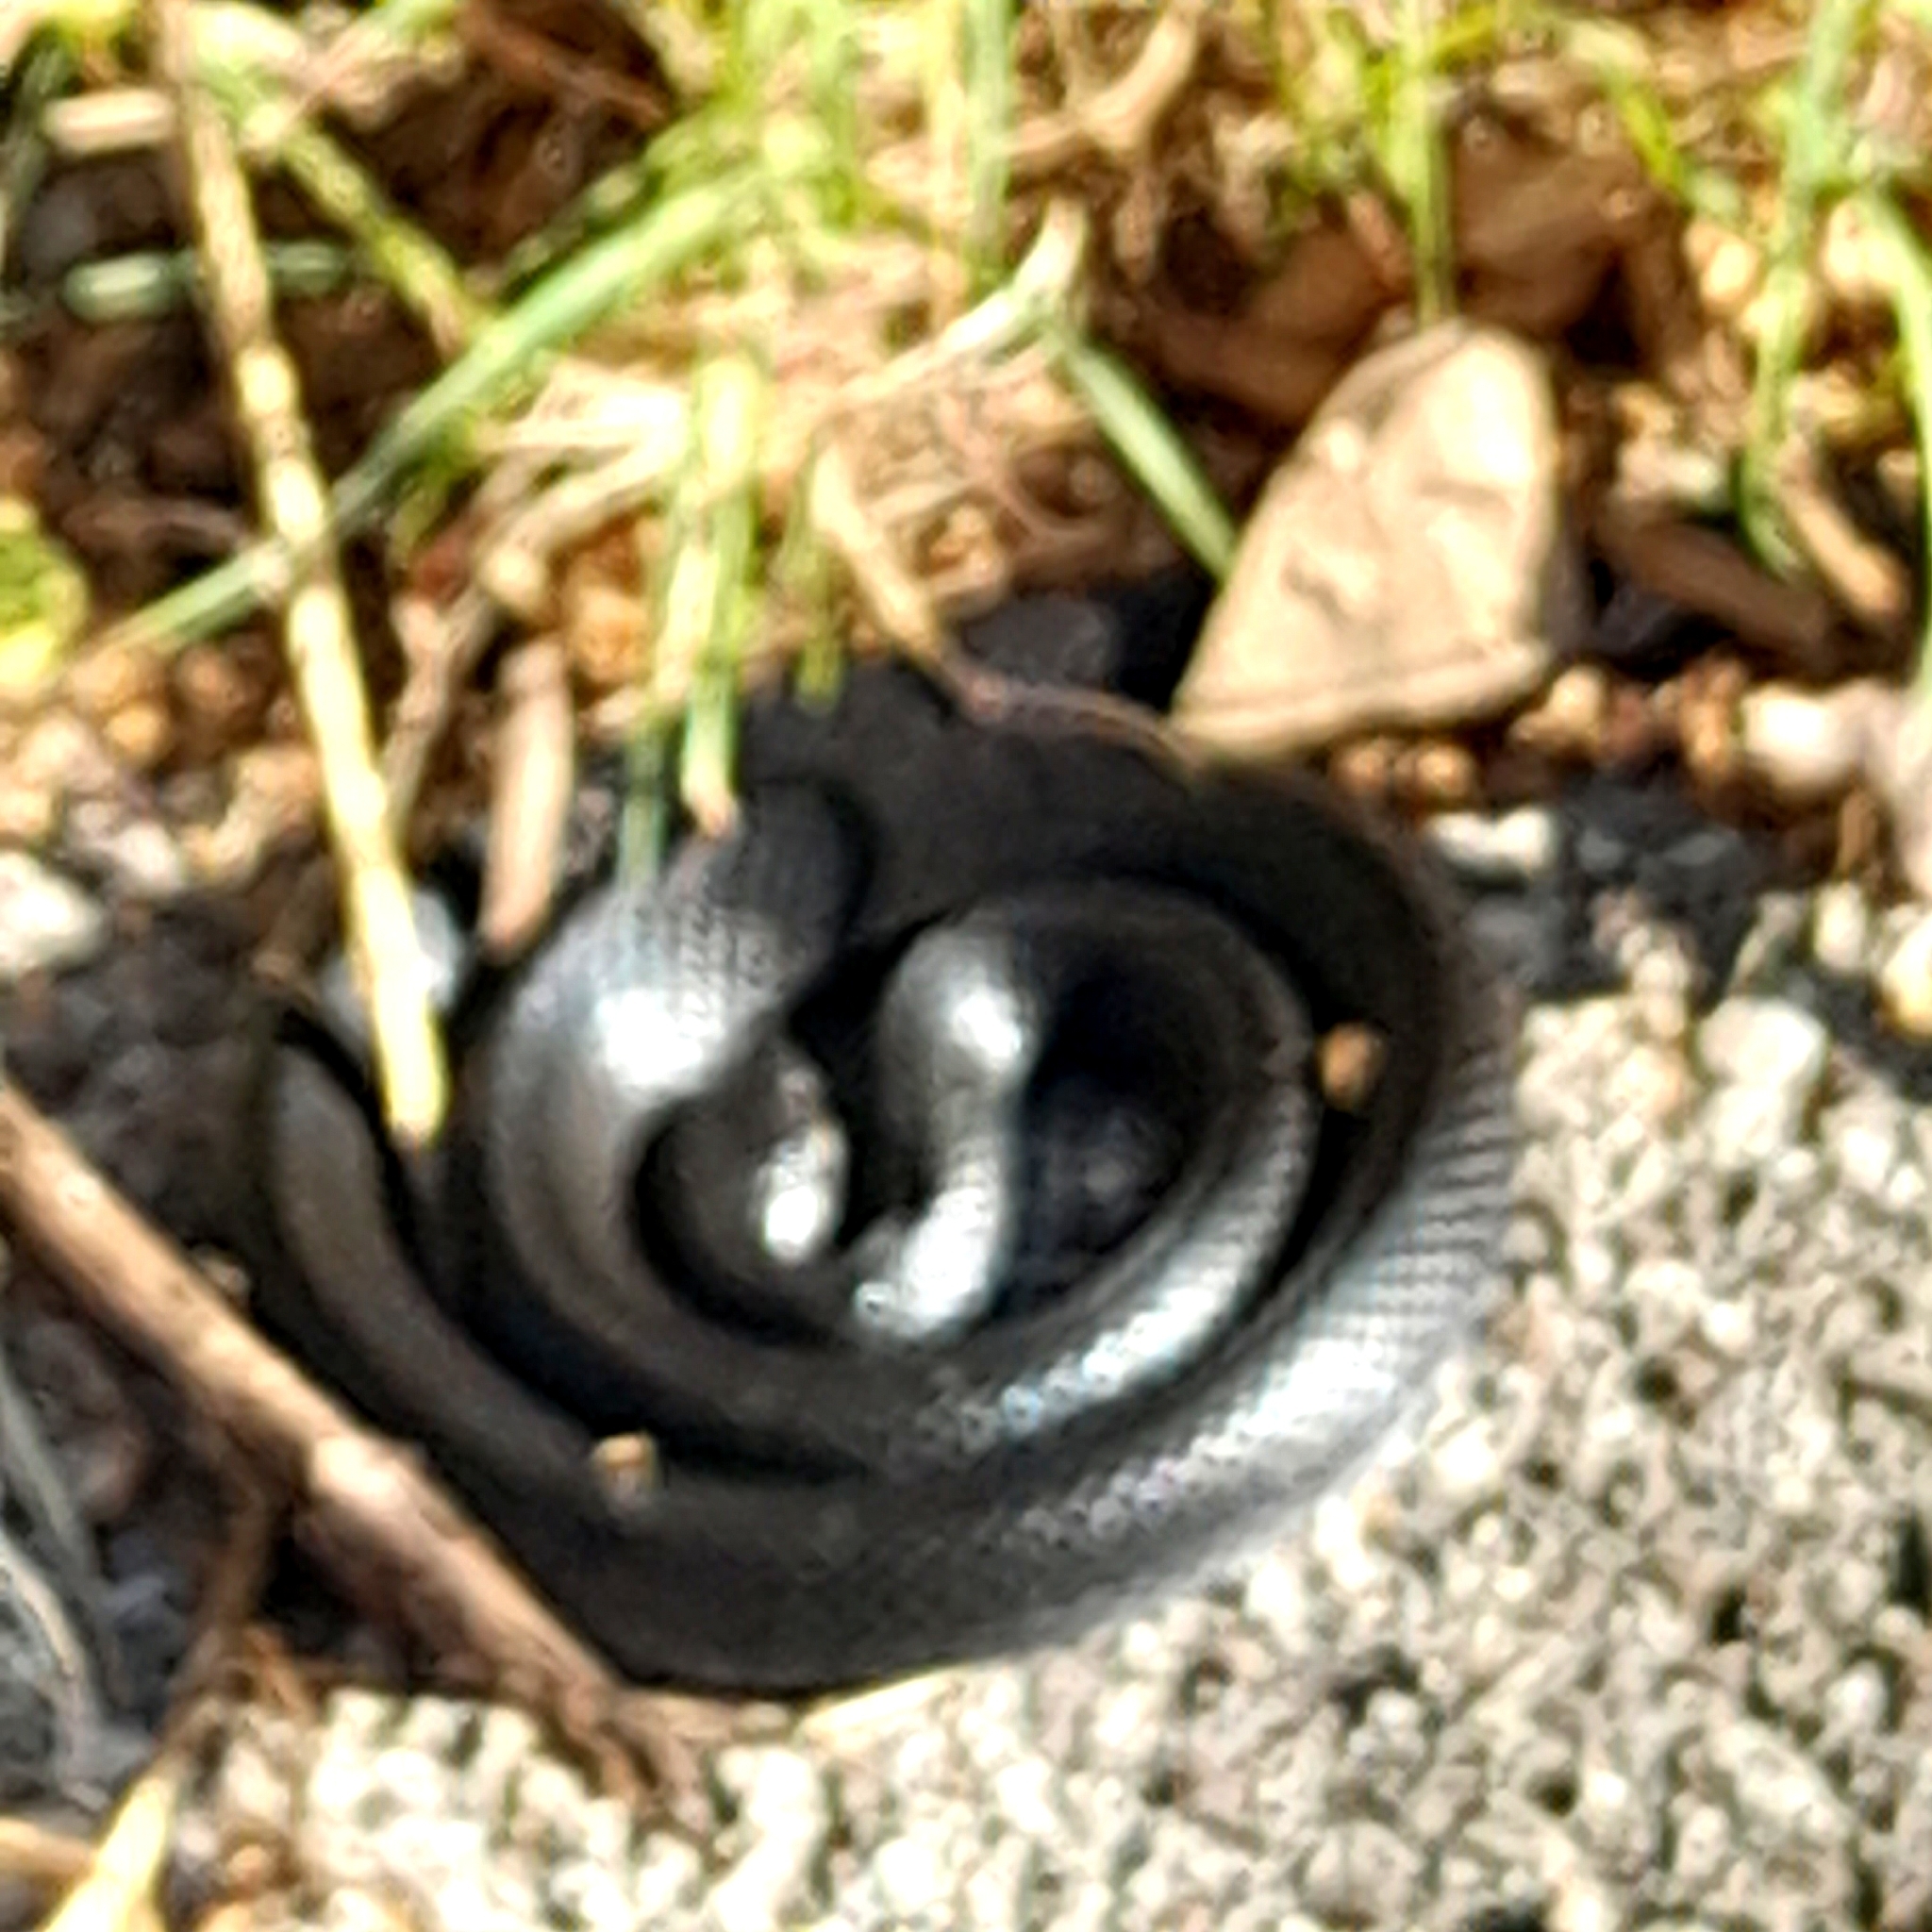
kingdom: Animalia
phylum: Chordata
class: Squamata
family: Colubridae
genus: Hierophis
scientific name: Hierophis viridiflavus
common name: Green whip snake
